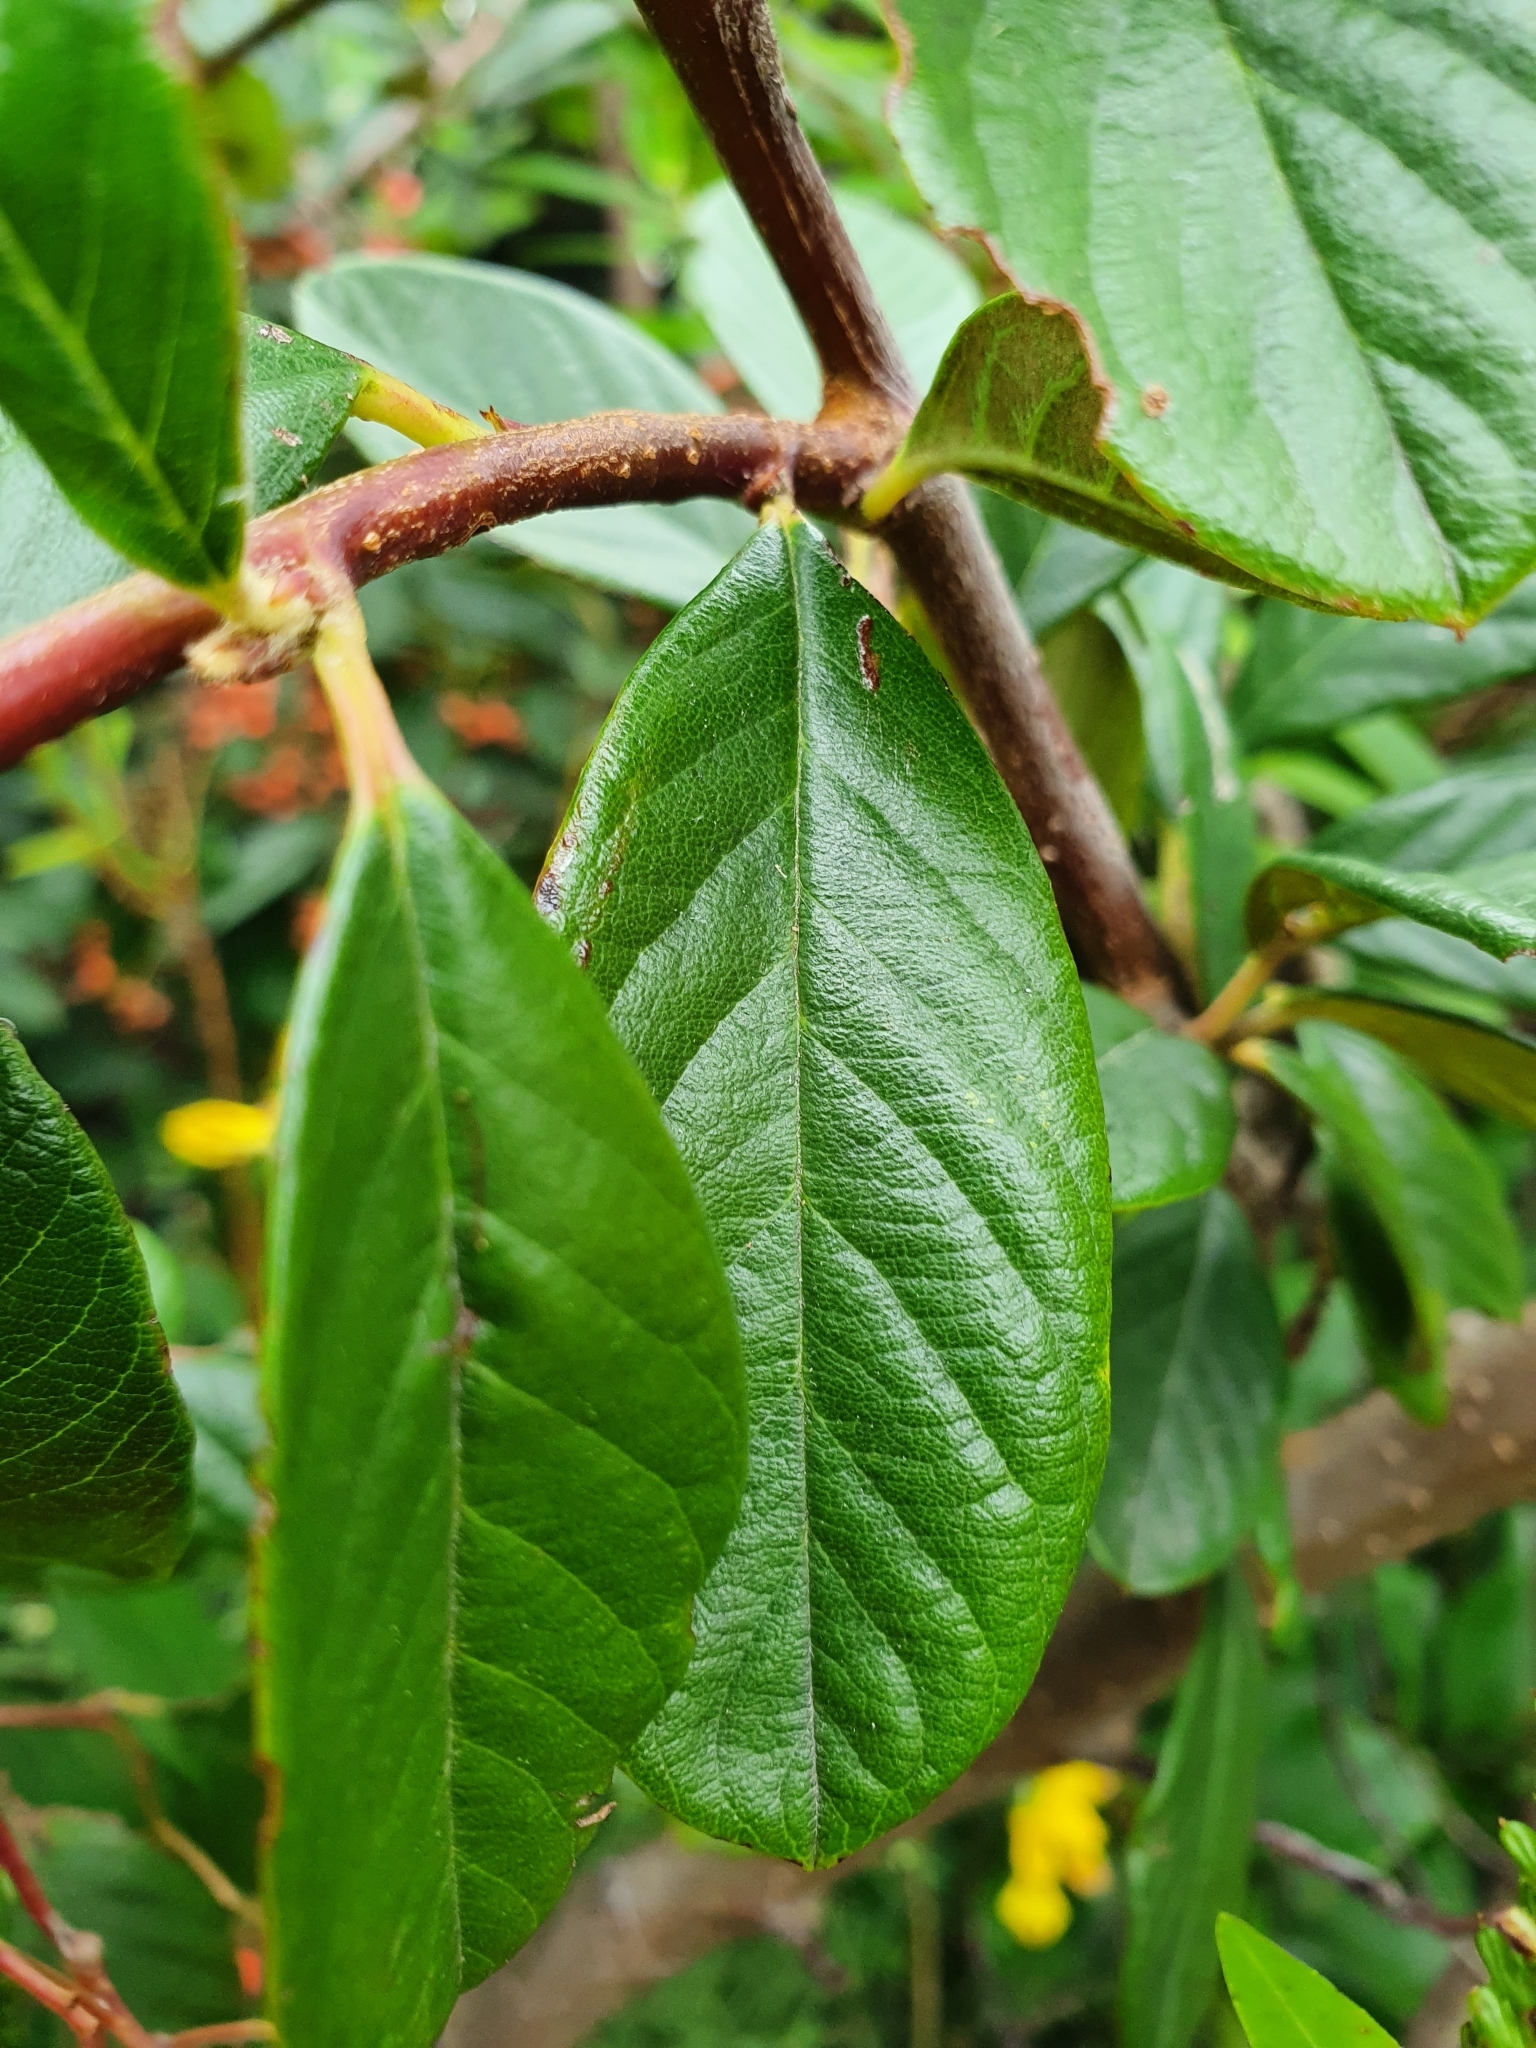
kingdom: Plantae
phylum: Tracheophyta
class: Magnoliopsida
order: Rosales
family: Rosaceae
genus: Cotoneaster
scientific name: Cotoneaster coriaceus
